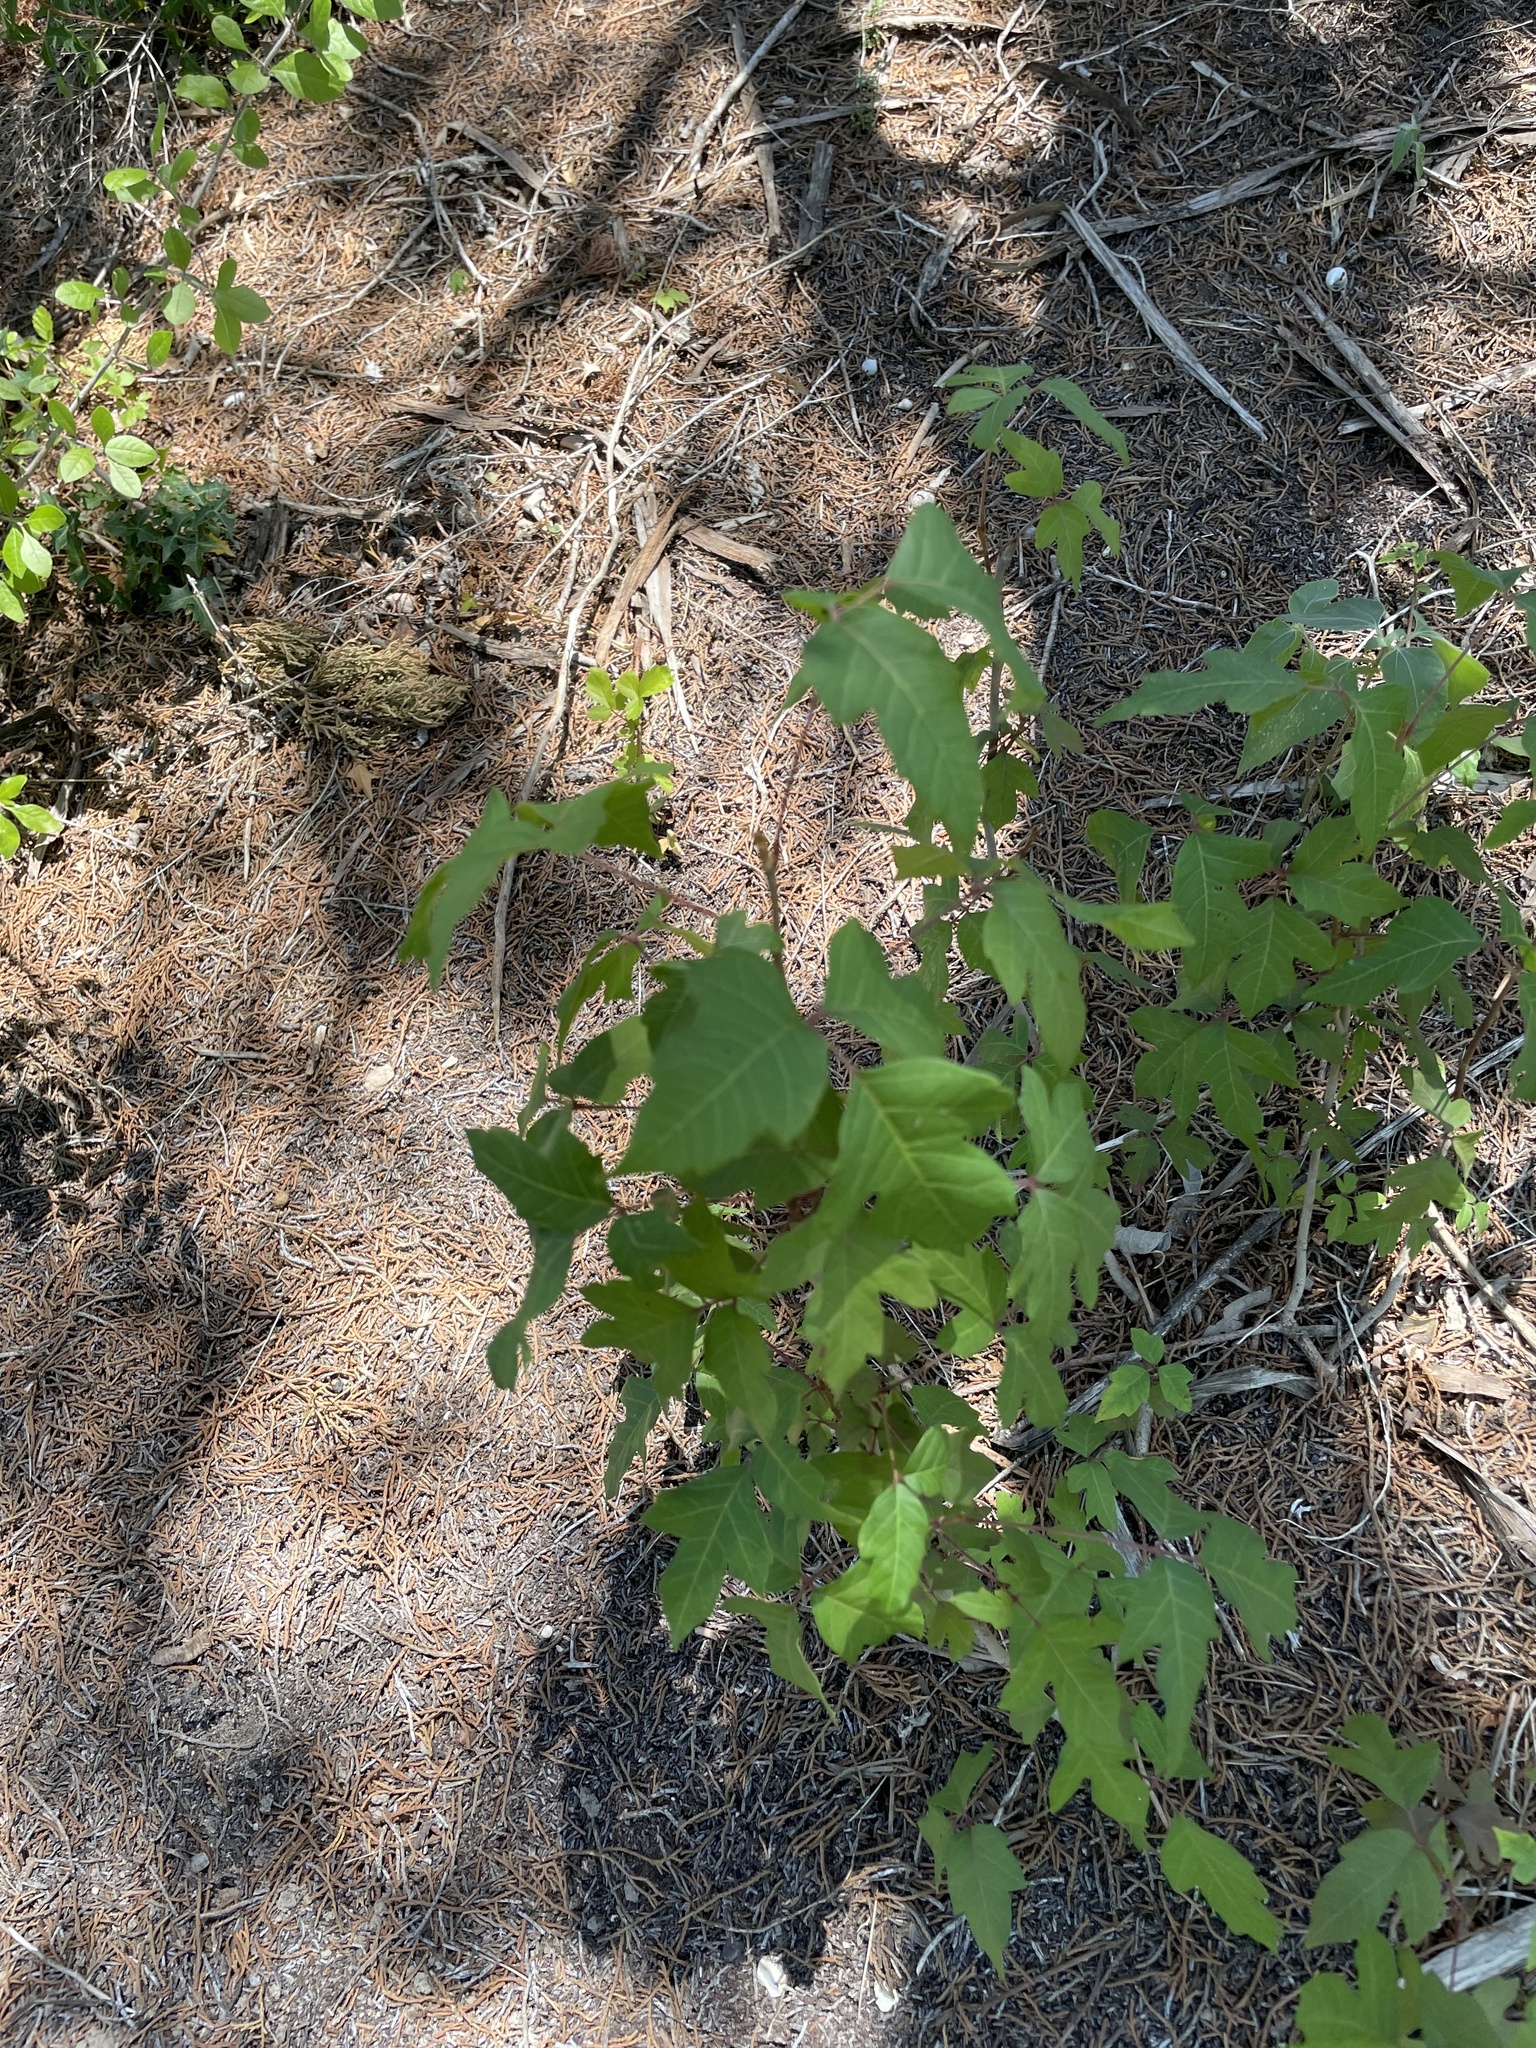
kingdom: Plantae
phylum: Tracheophyta
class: Magnoliopsida
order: Sapindales
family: Anacardiaceae
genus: Toxicodendron
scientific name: Toxicodendron radicans
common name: Poison ivy
